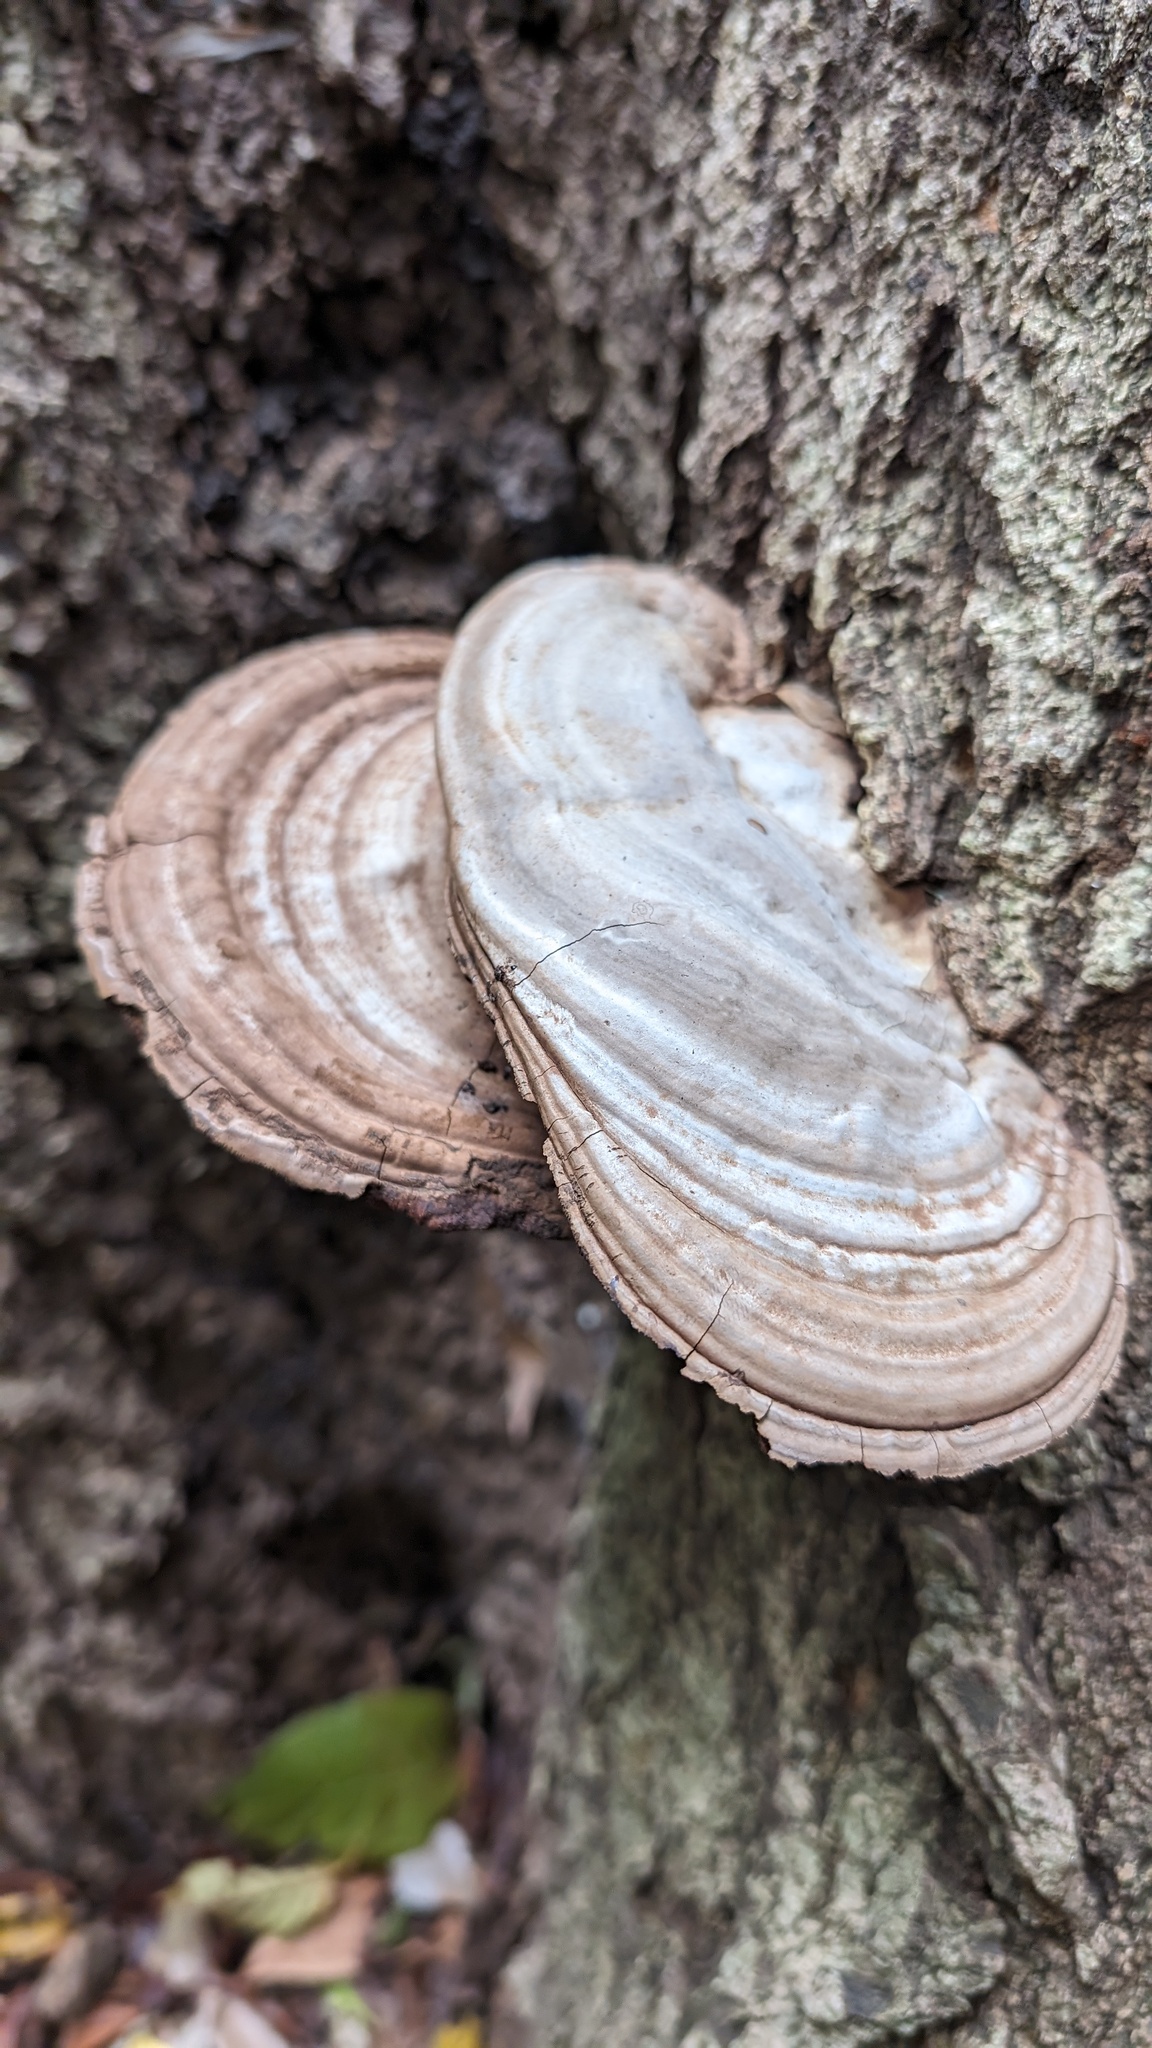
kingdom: Fungi
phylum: Basidiomycota
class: Agaricomycetes
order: Polyporales
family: Polyporaceae
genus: Ganoderma
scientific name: Ganoderma applanatum
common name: Artist's bracket
